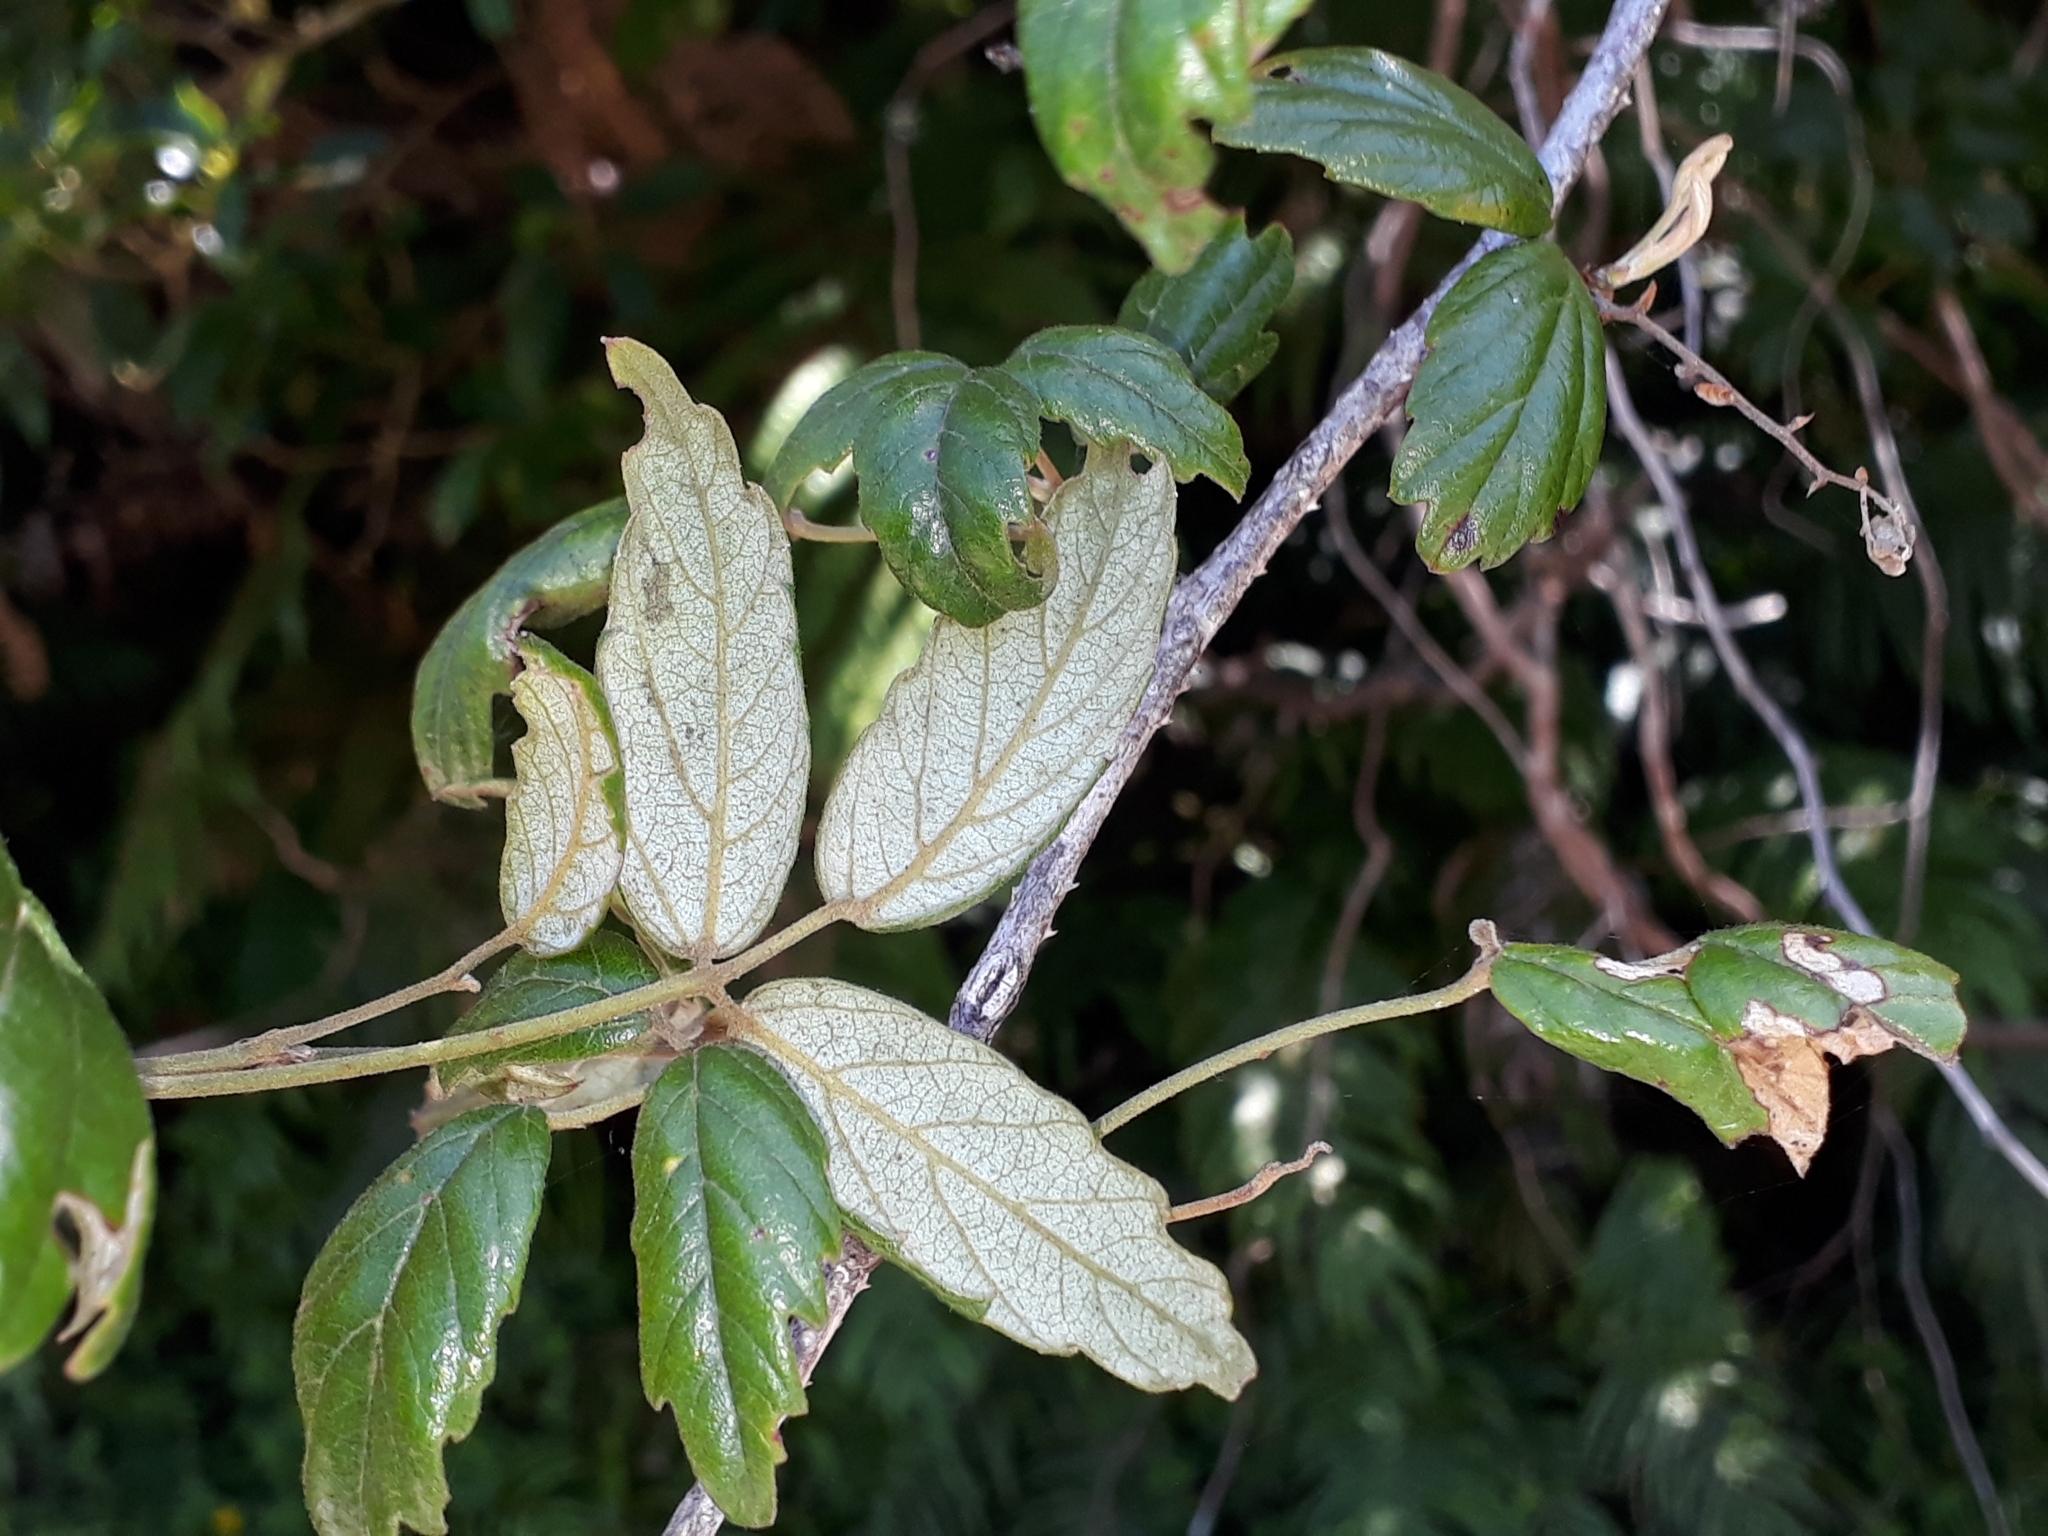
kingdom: Plantae
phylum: Tracheophyta
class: Magnoliopsida
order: Rosales
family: Rosaceae
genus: Rubus
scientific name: Rubus schmidelioides
